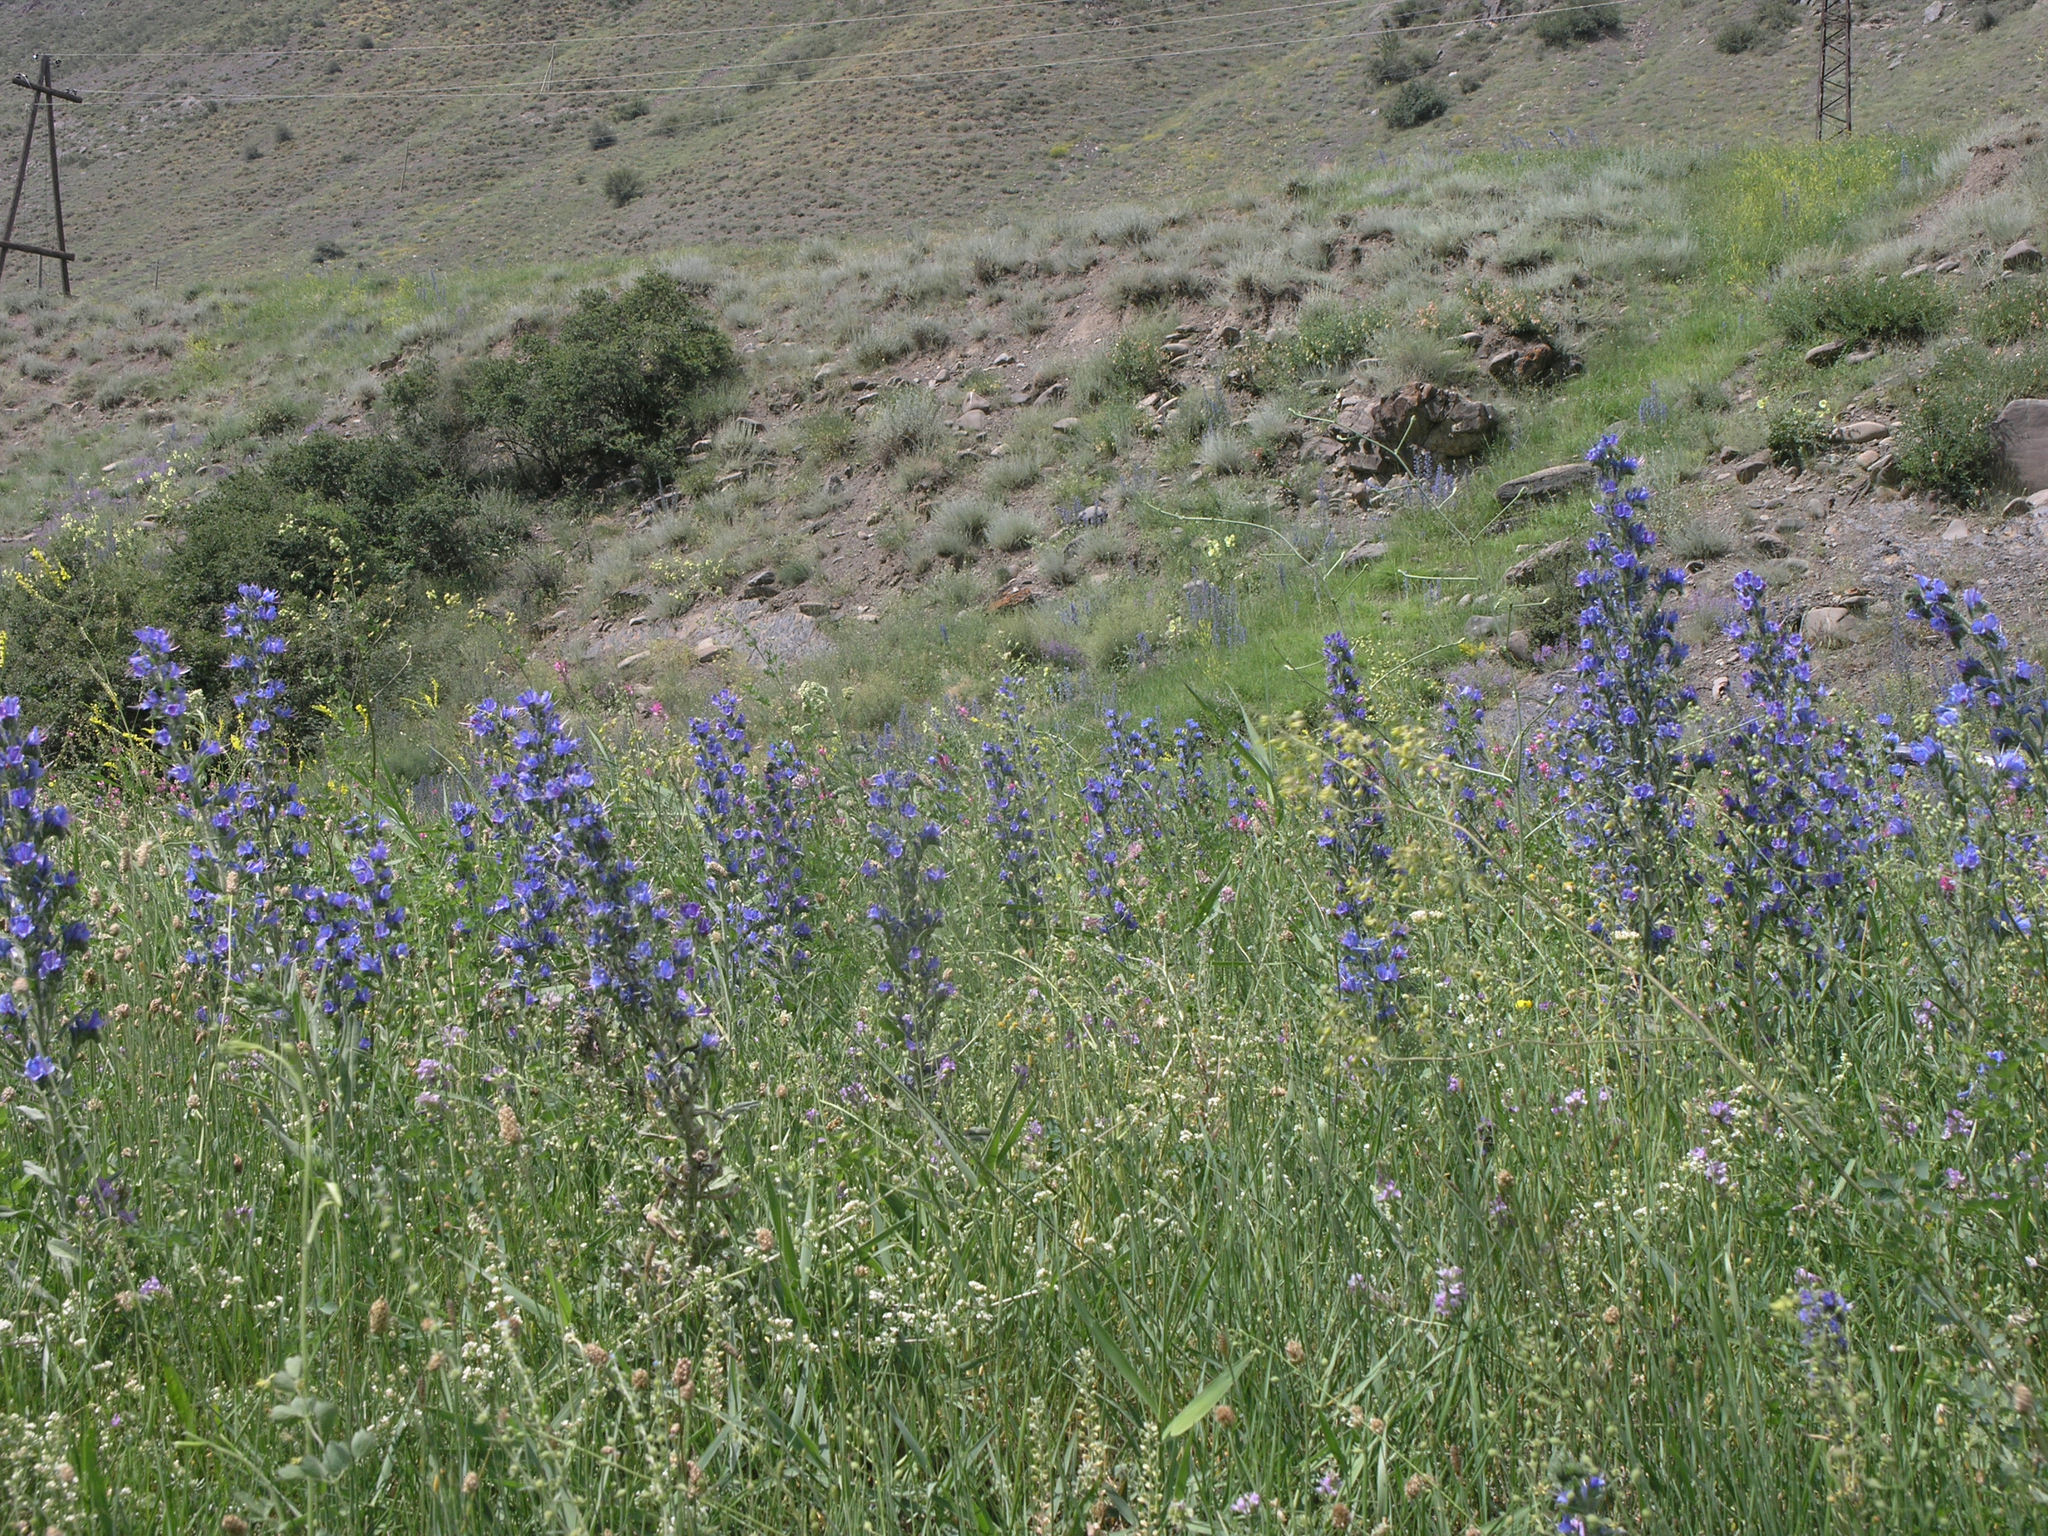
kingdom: Plantae
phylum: Tracheophyta
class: Magnoliopsida
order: Boraginales
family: Boraginaceae
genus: Echium
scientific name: Echium vulgare
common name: Common viper's bugloss
